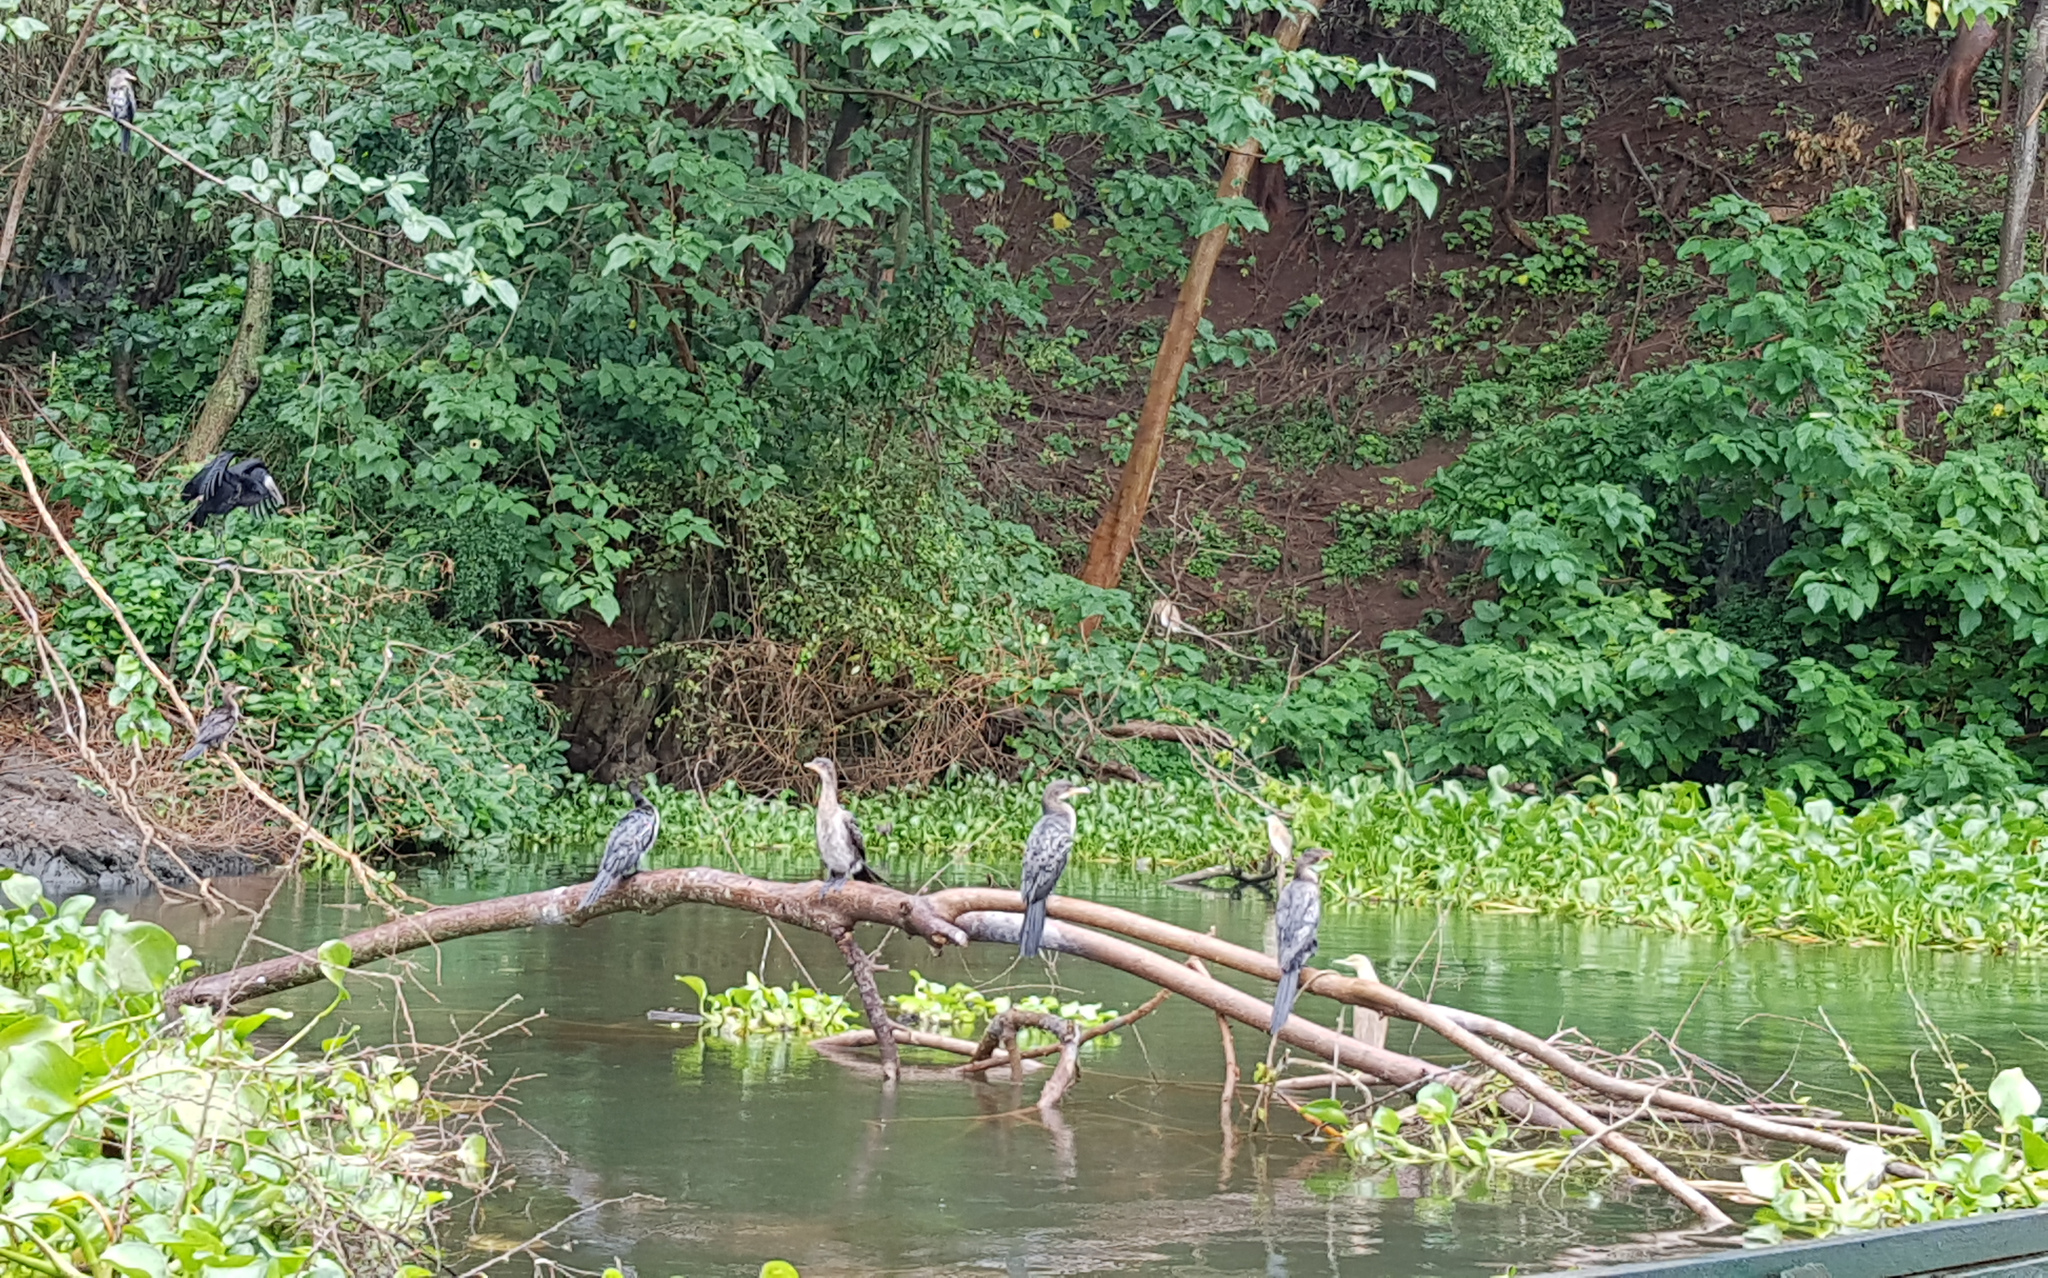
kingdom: Animalia
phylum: Chordata
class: Aves
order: Suliformes
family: Phalacrocoracidae
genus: Microcarbo
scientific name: Microcarbo africanus
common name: Long-tailed cormorant
